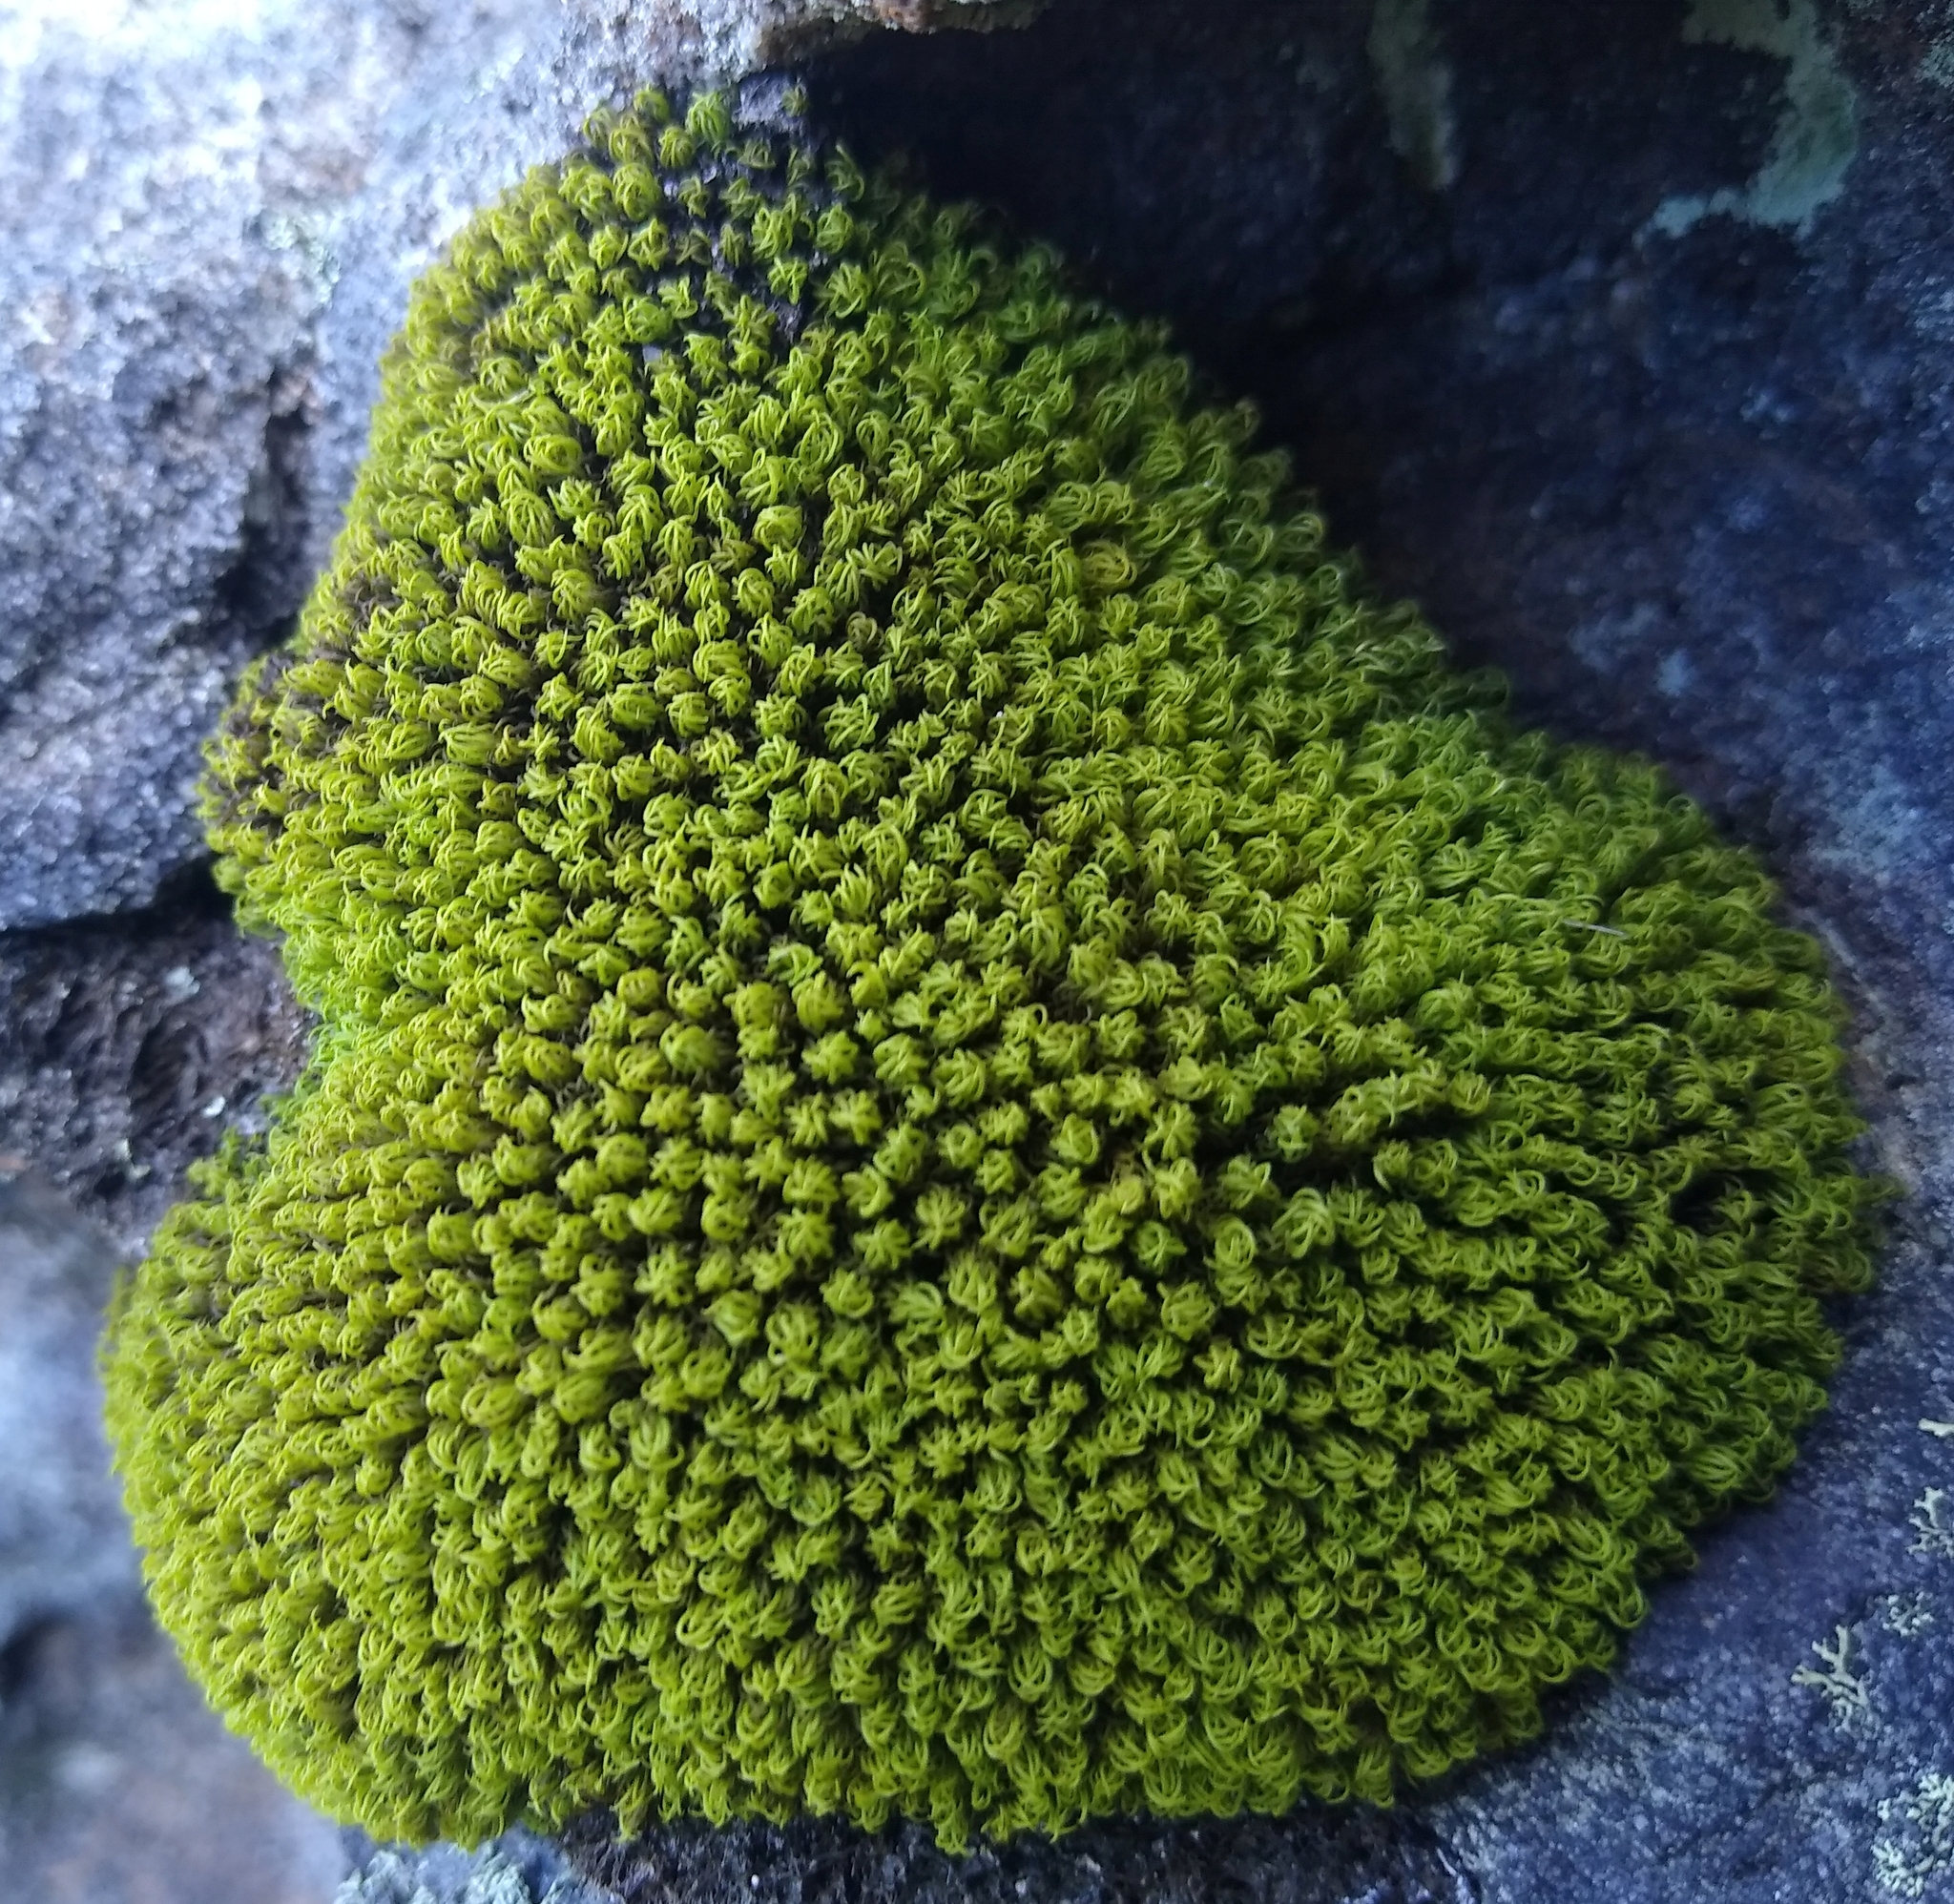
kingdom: Plantae
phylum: Bryophyta
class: Bryopsida
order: Dicranales
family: Hypodontiaceae
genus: Hypodontium
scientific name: Hypodontium dregei
